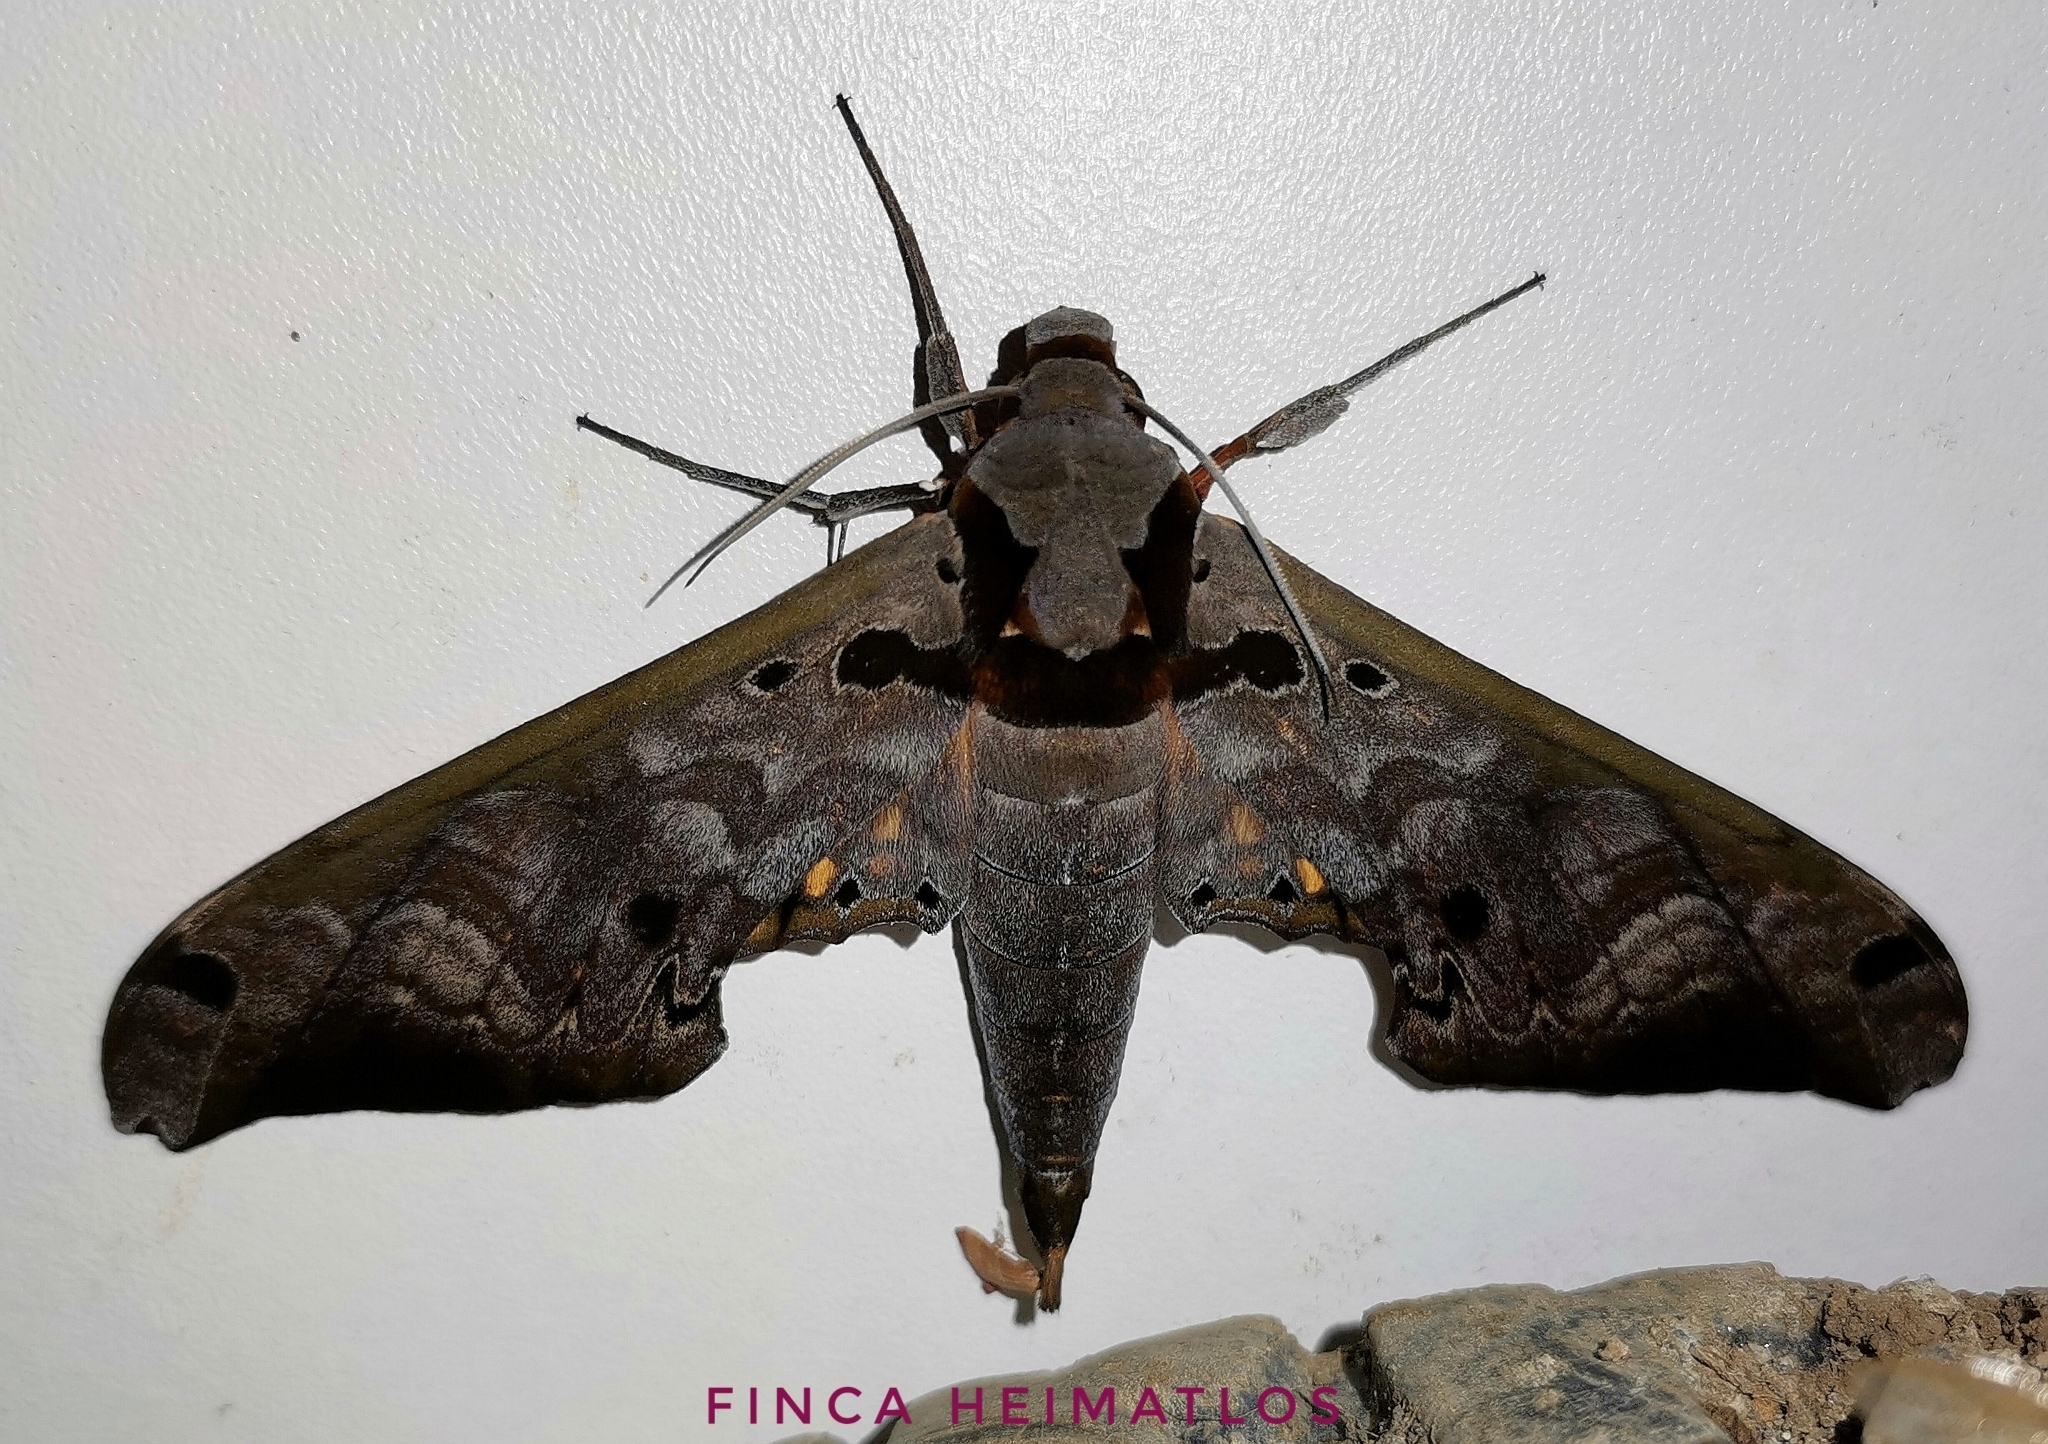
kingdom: Animalia
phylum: Arthropoda
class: Insecta
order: Lepidoptera
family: Sphingidae
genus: Adhemarius
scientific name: Adhemarius tigrina
